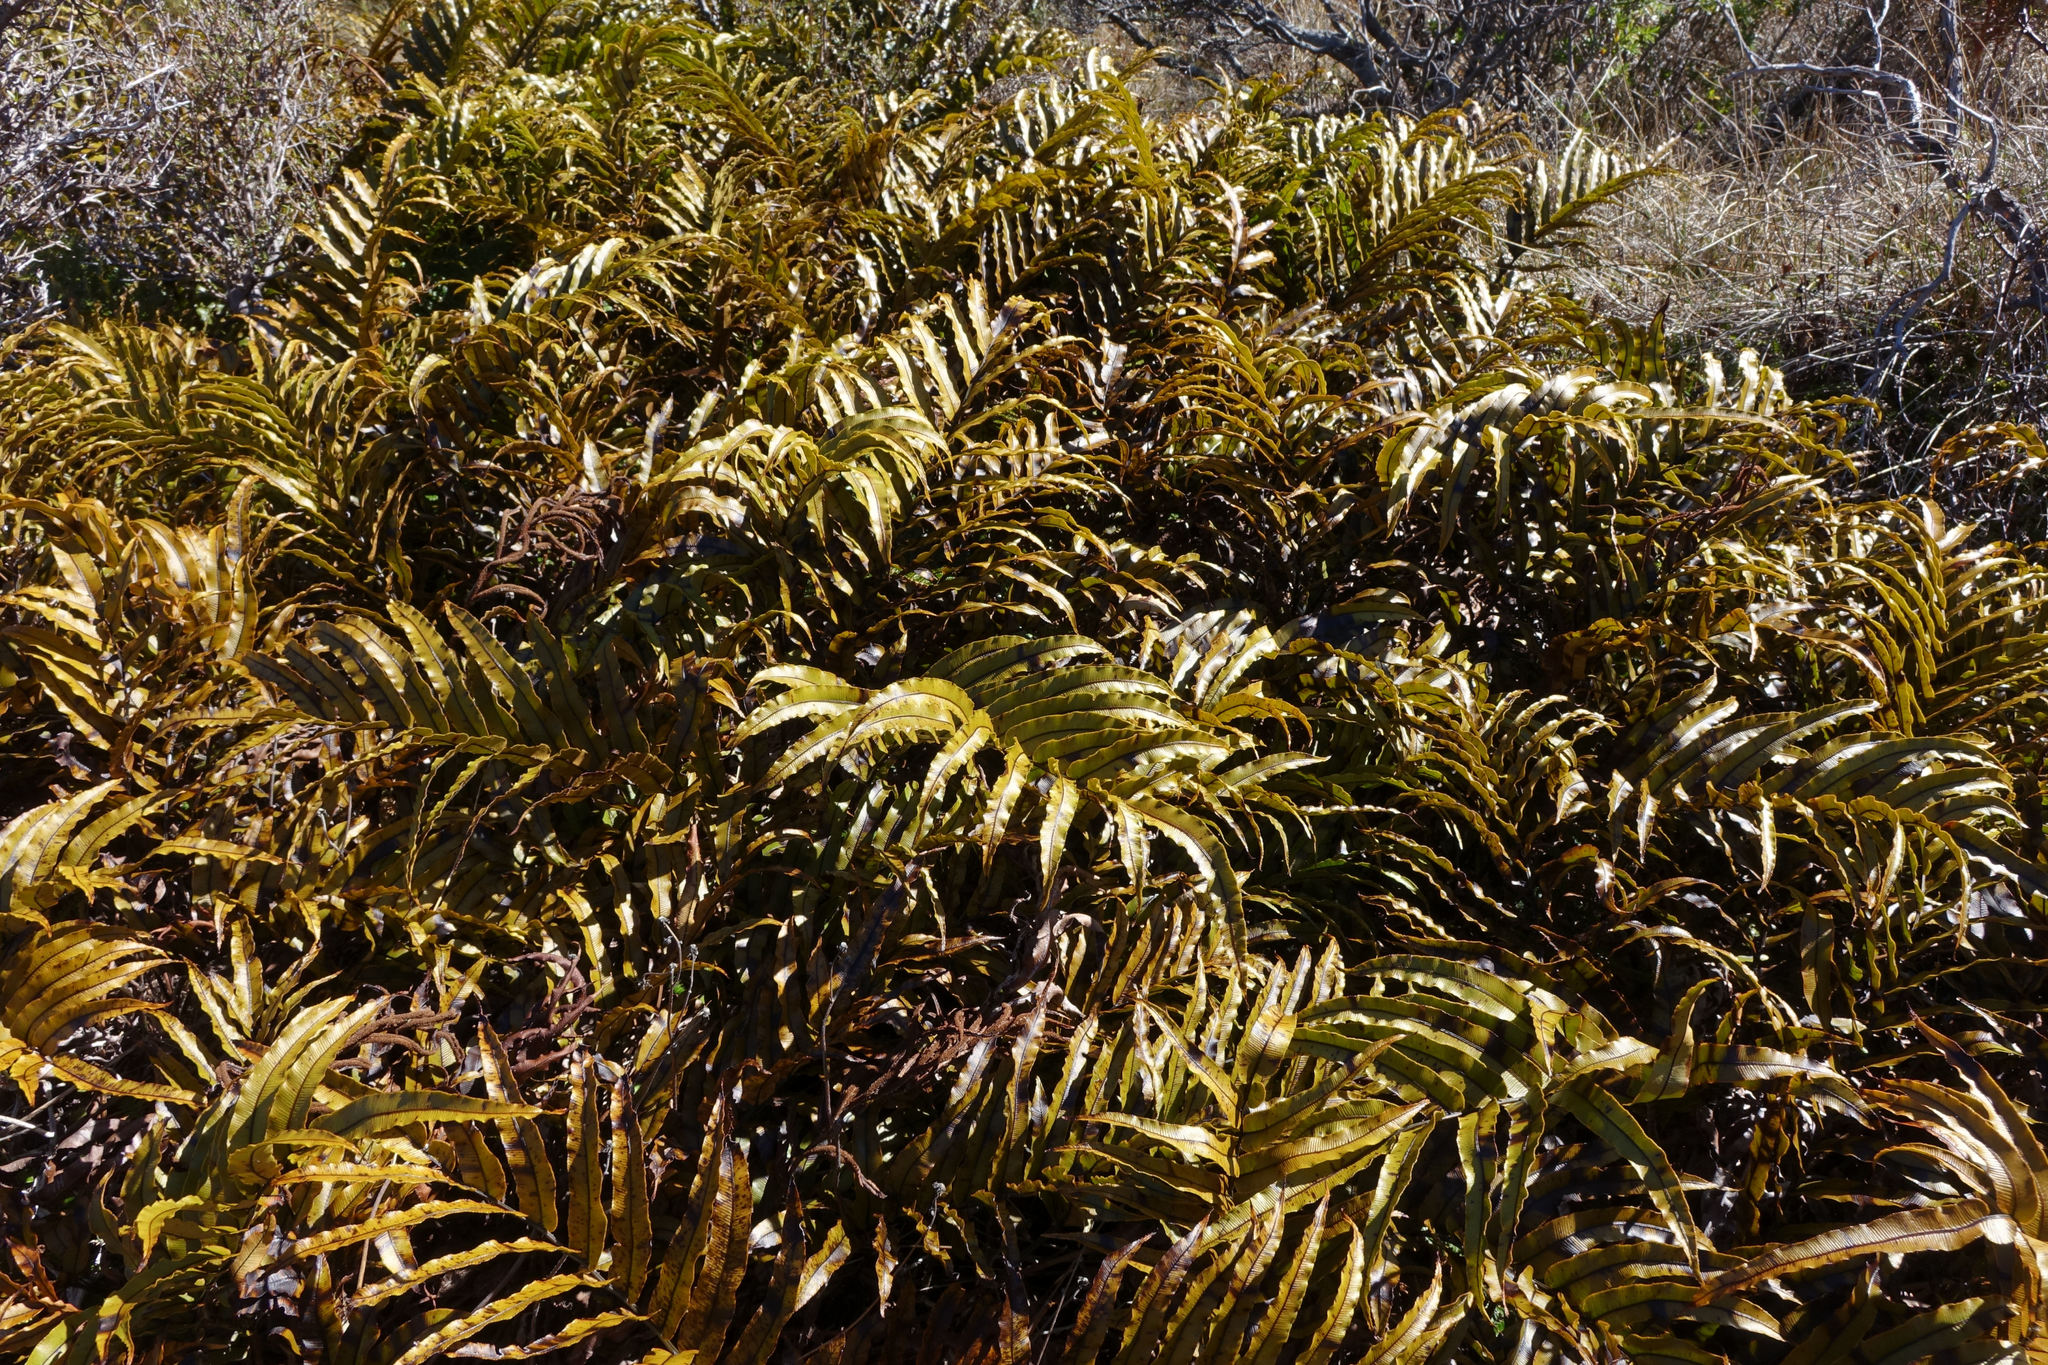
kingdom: Plantae
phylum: Tracheophyta
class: Polypodiopsida
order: Polypodiales
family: Blechnaceae
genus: Parablechnum
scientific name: Parablechnum montanum
